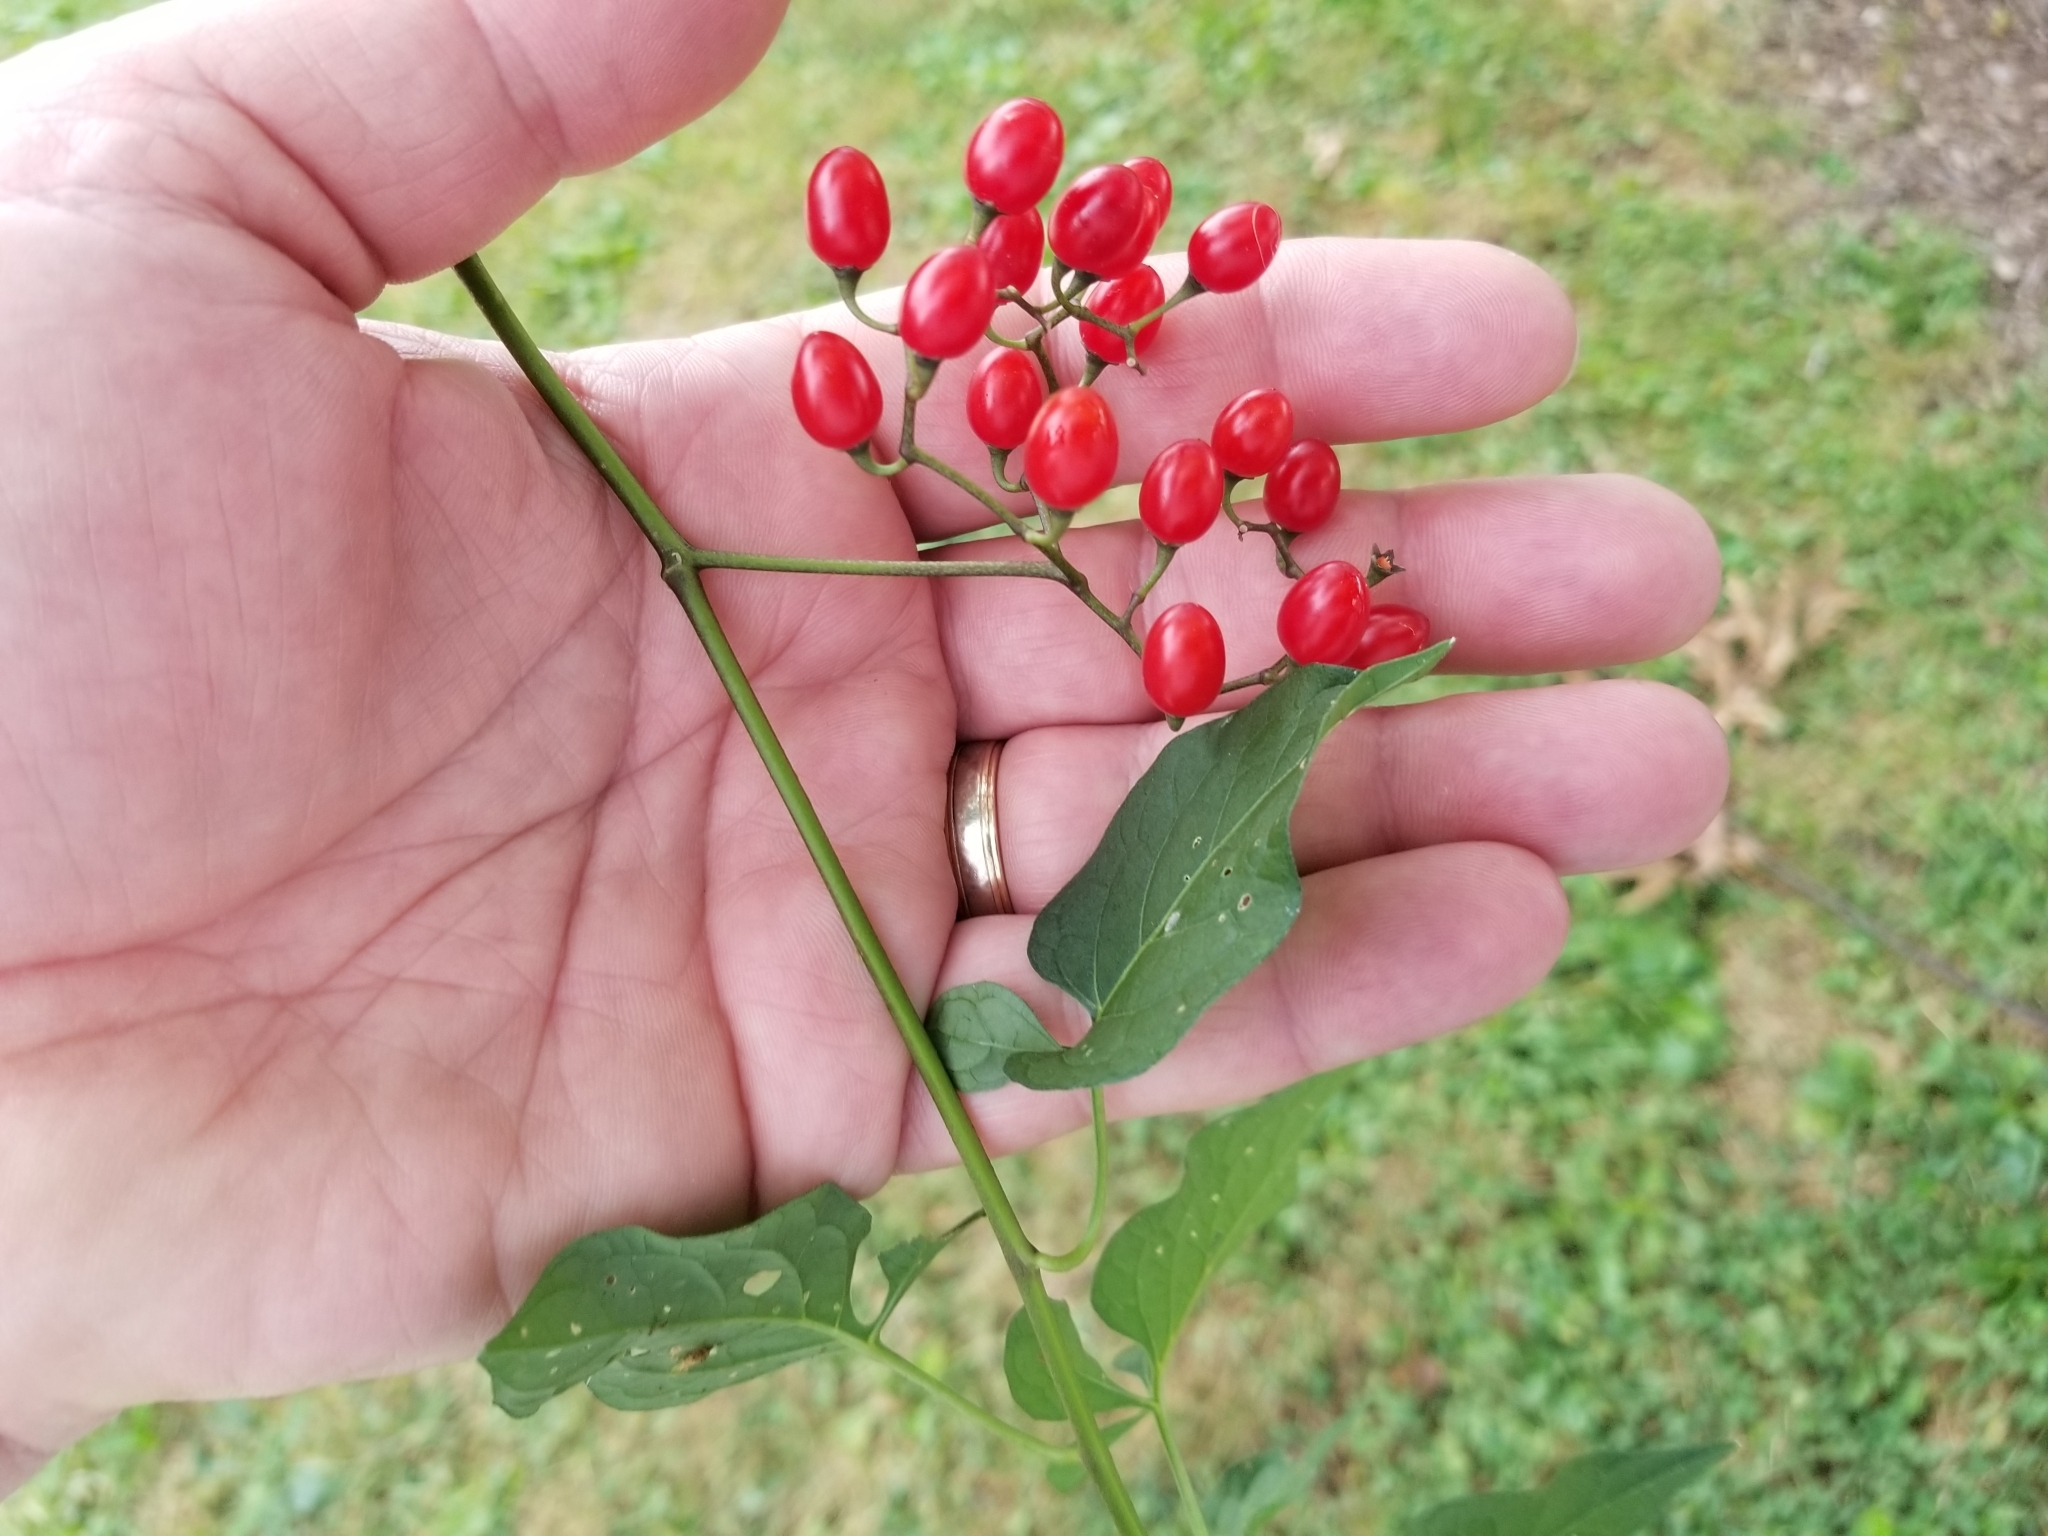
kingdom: Plantae
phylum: Tracheophyta
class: Magnoliopsida
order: Solanales
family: Solanaceae
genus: Solanum
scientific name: Solanum dulcamara
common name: Climbing nightshade
